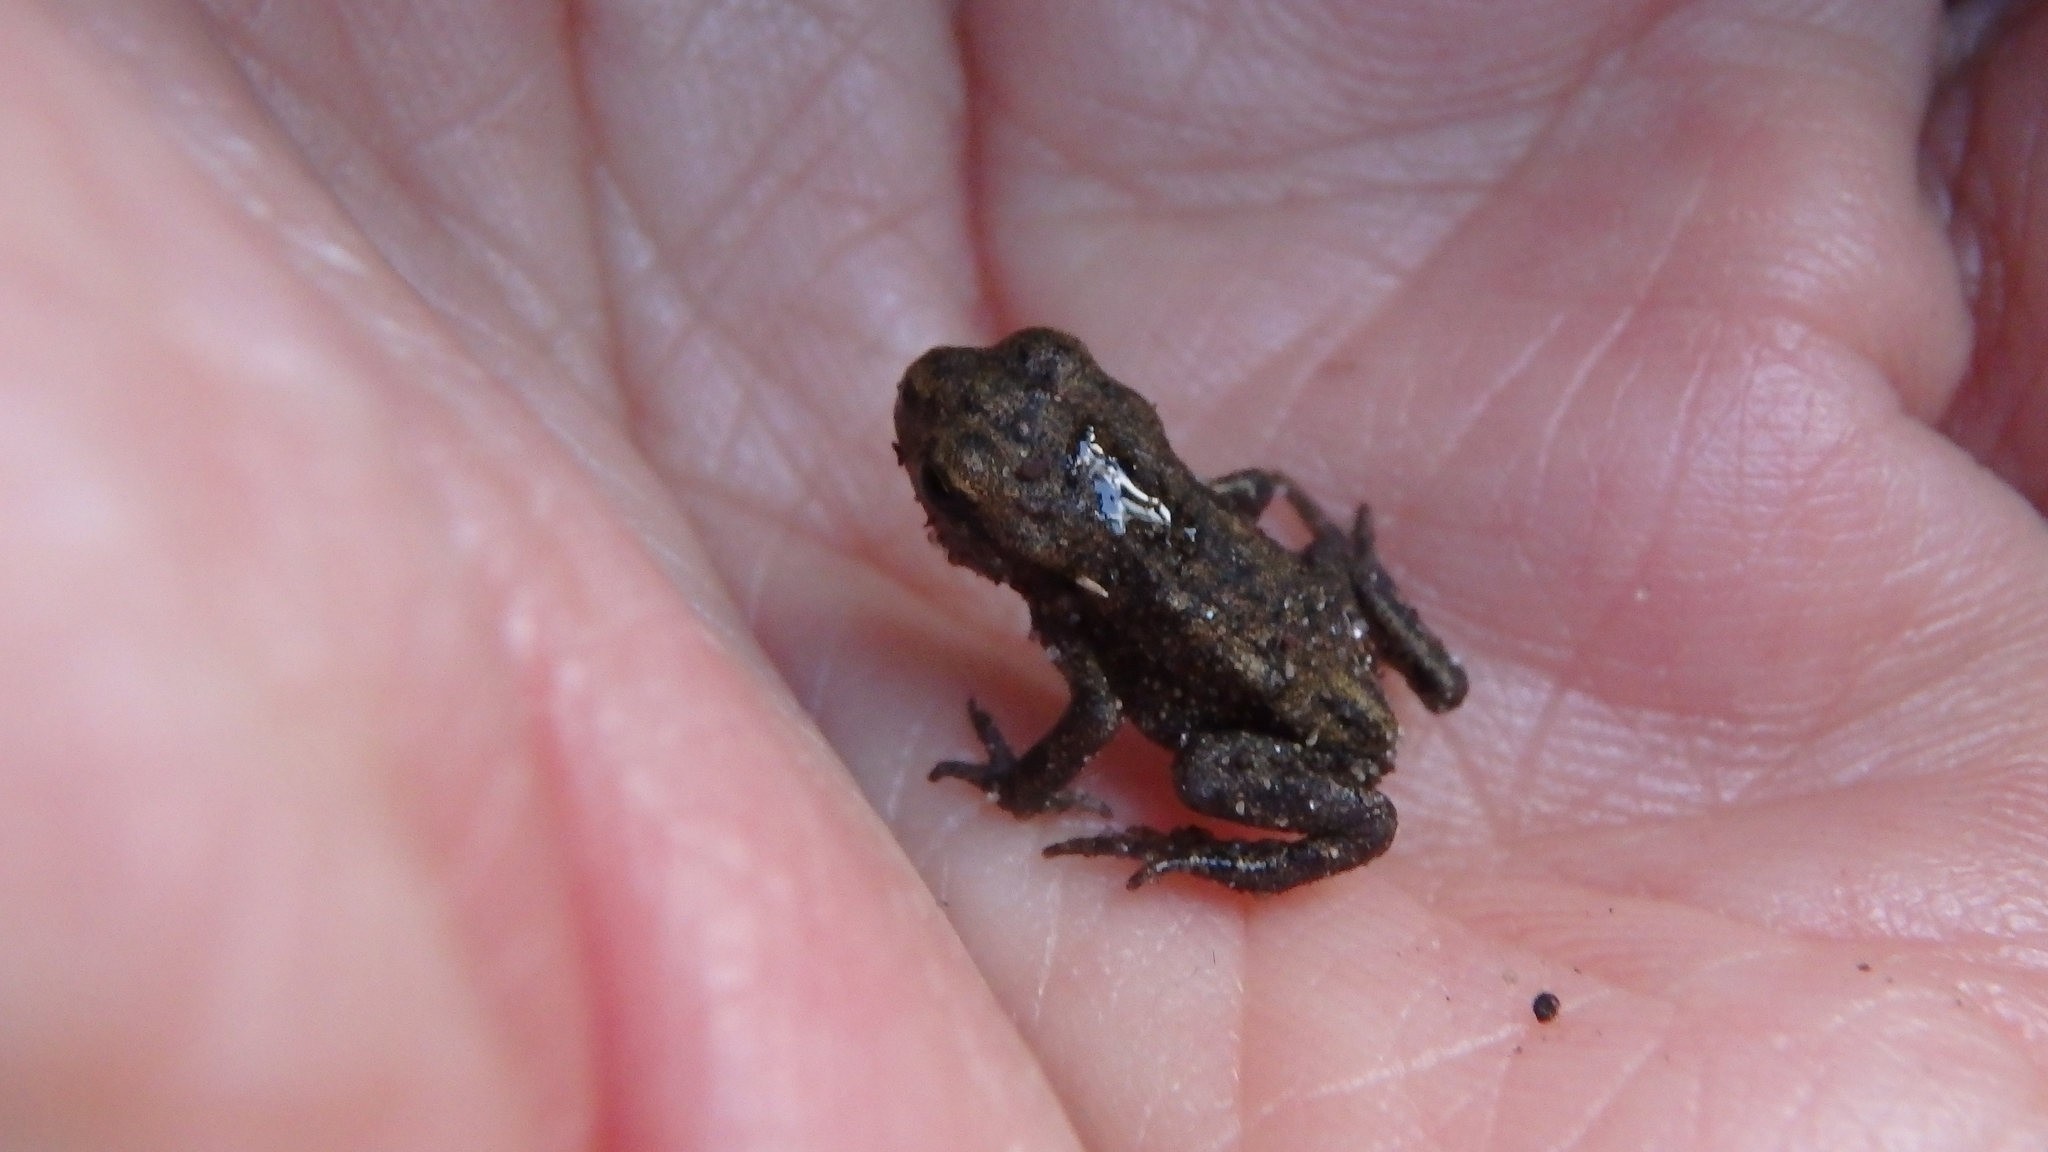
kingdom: Animalia
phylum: Chordata
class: Amphibia
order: Anura
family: Bufonidae
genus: Bufo
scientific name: Bufo bufo
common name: Common toad
